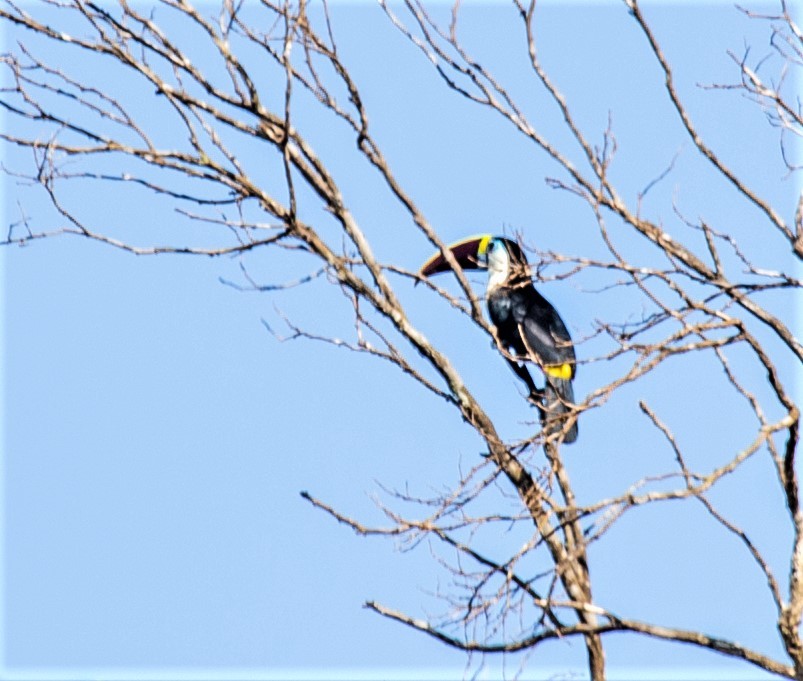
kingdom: Animalia
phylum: Chordata
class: Aves
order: Piciformes
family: Ramphastidae
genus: Ramphastos
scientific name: Ramphastos vitellinus
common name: Channel-billed toucan
